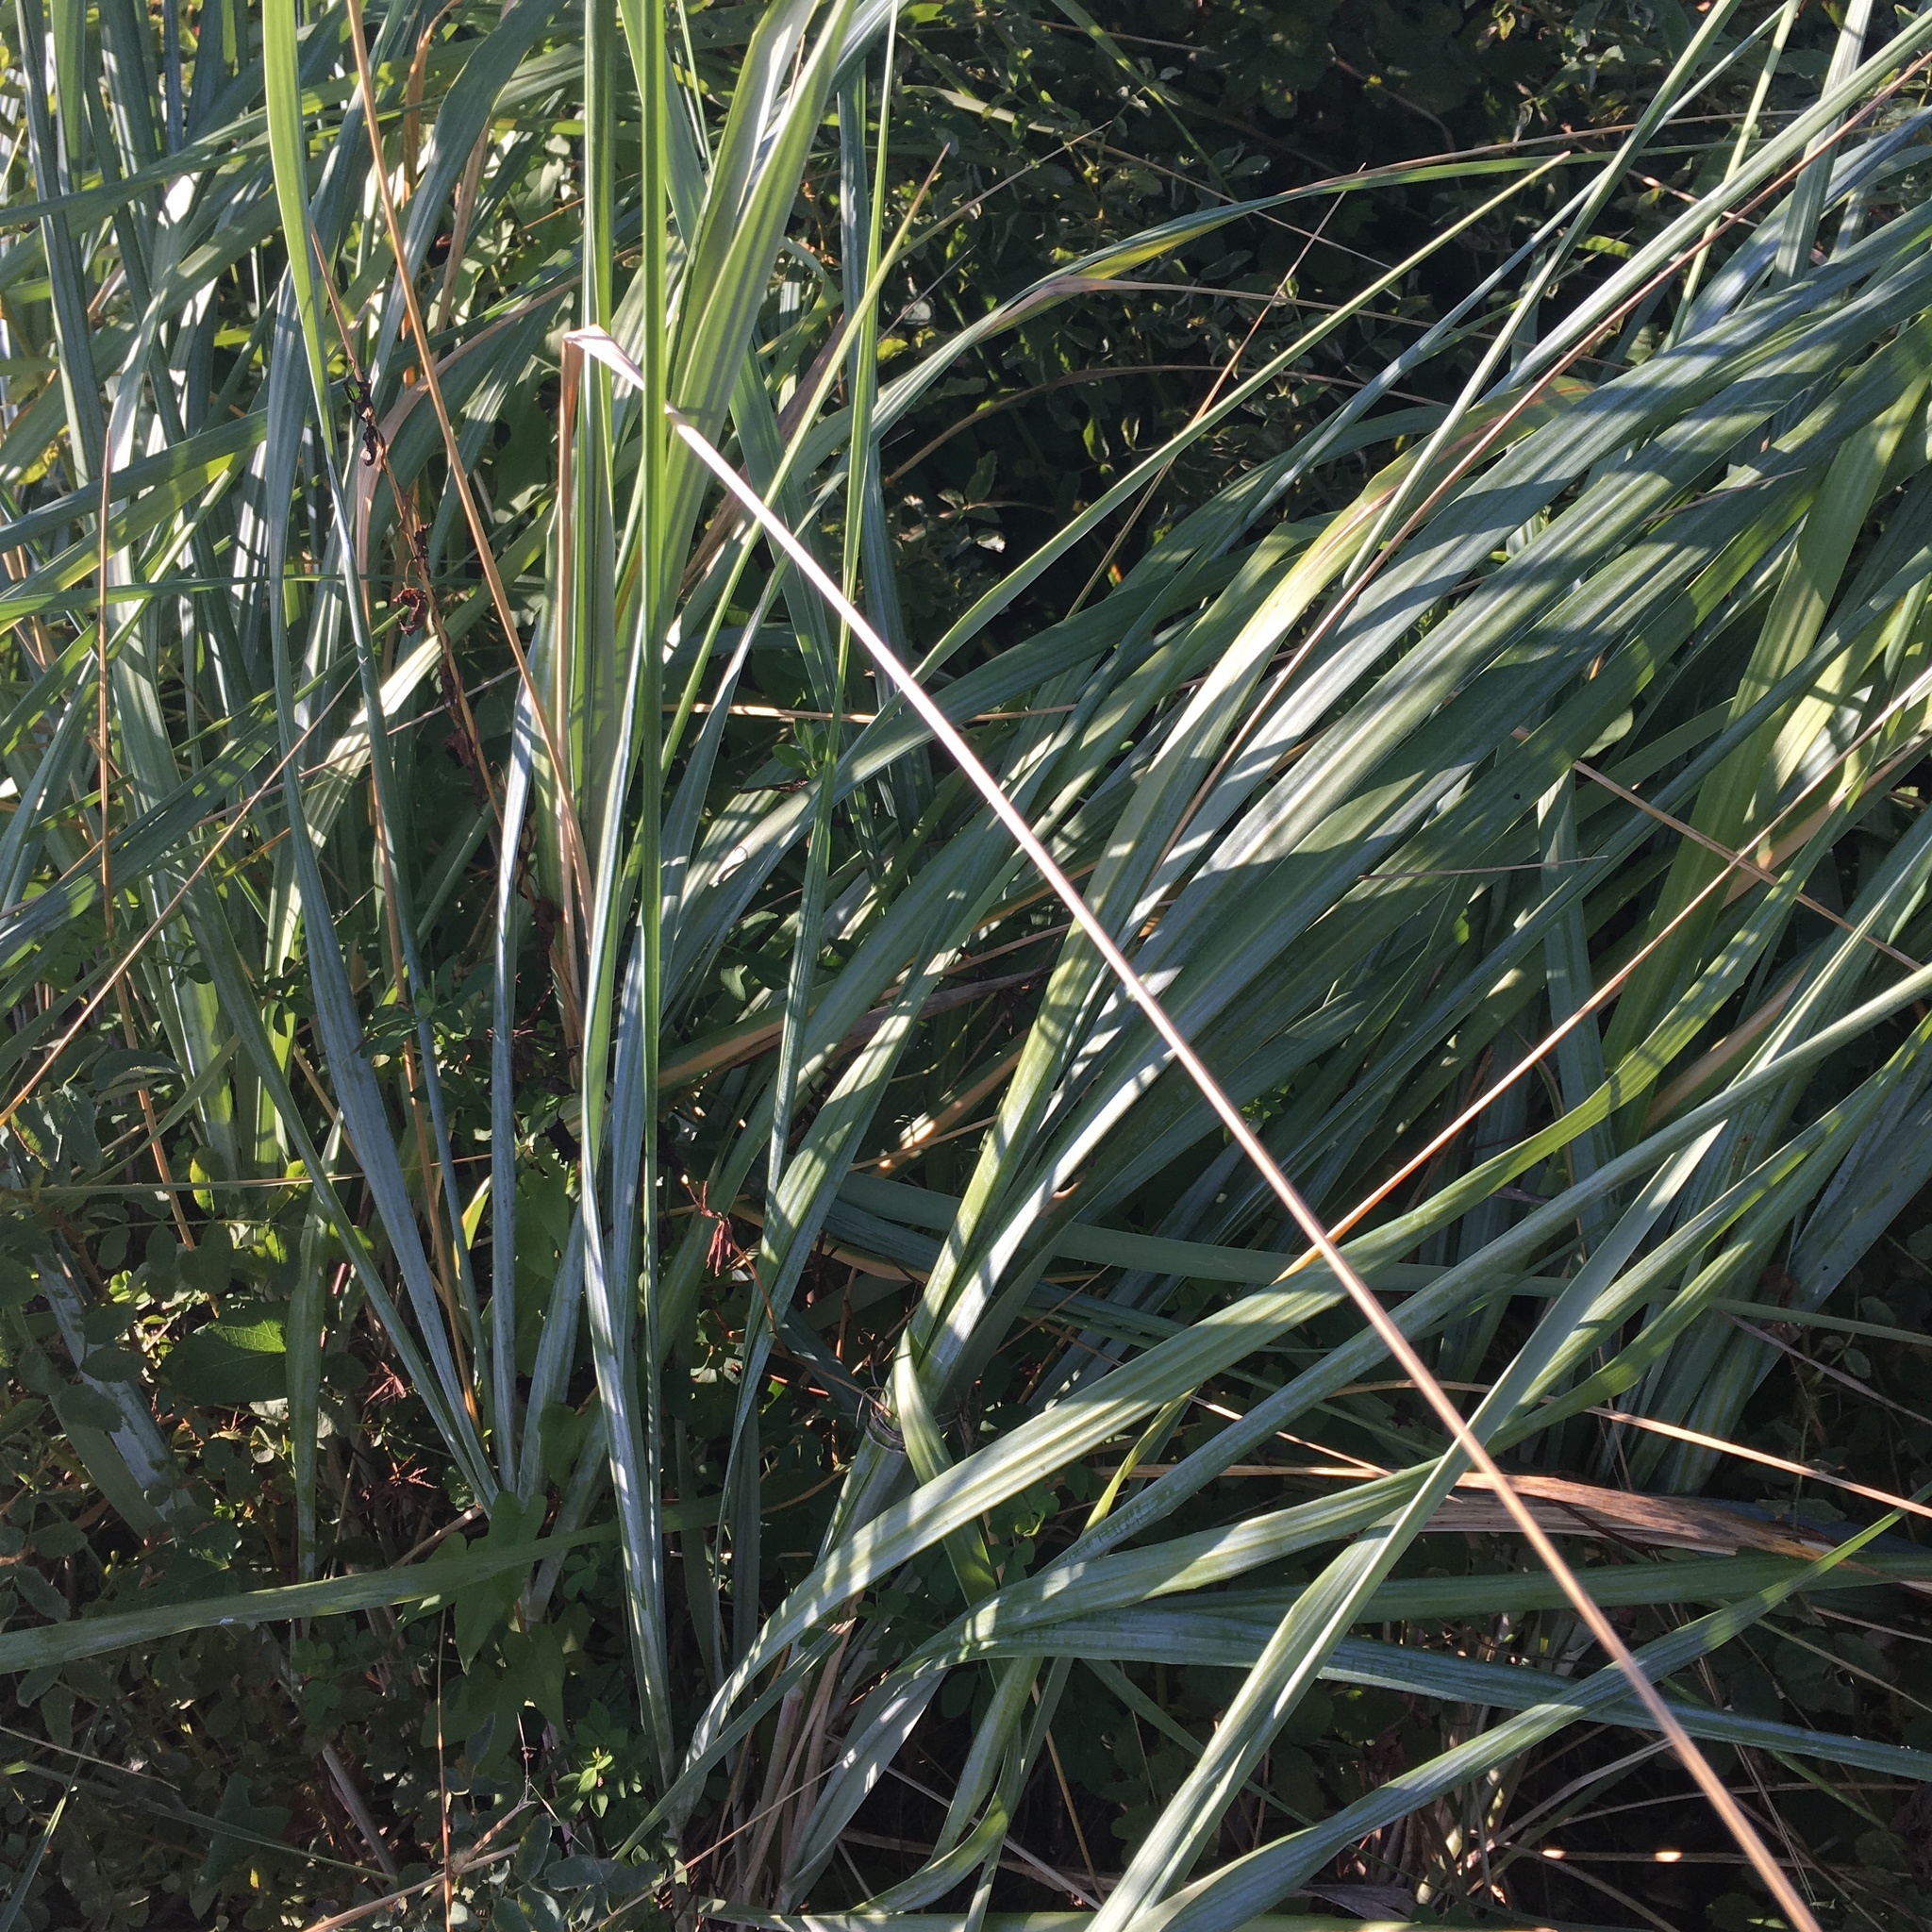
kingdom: Plantae
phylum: Tracheophyta
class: Liliopsida
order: Poales
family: Poaceae
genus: Leymus
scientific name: Leymus mollis
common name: American dune grass
